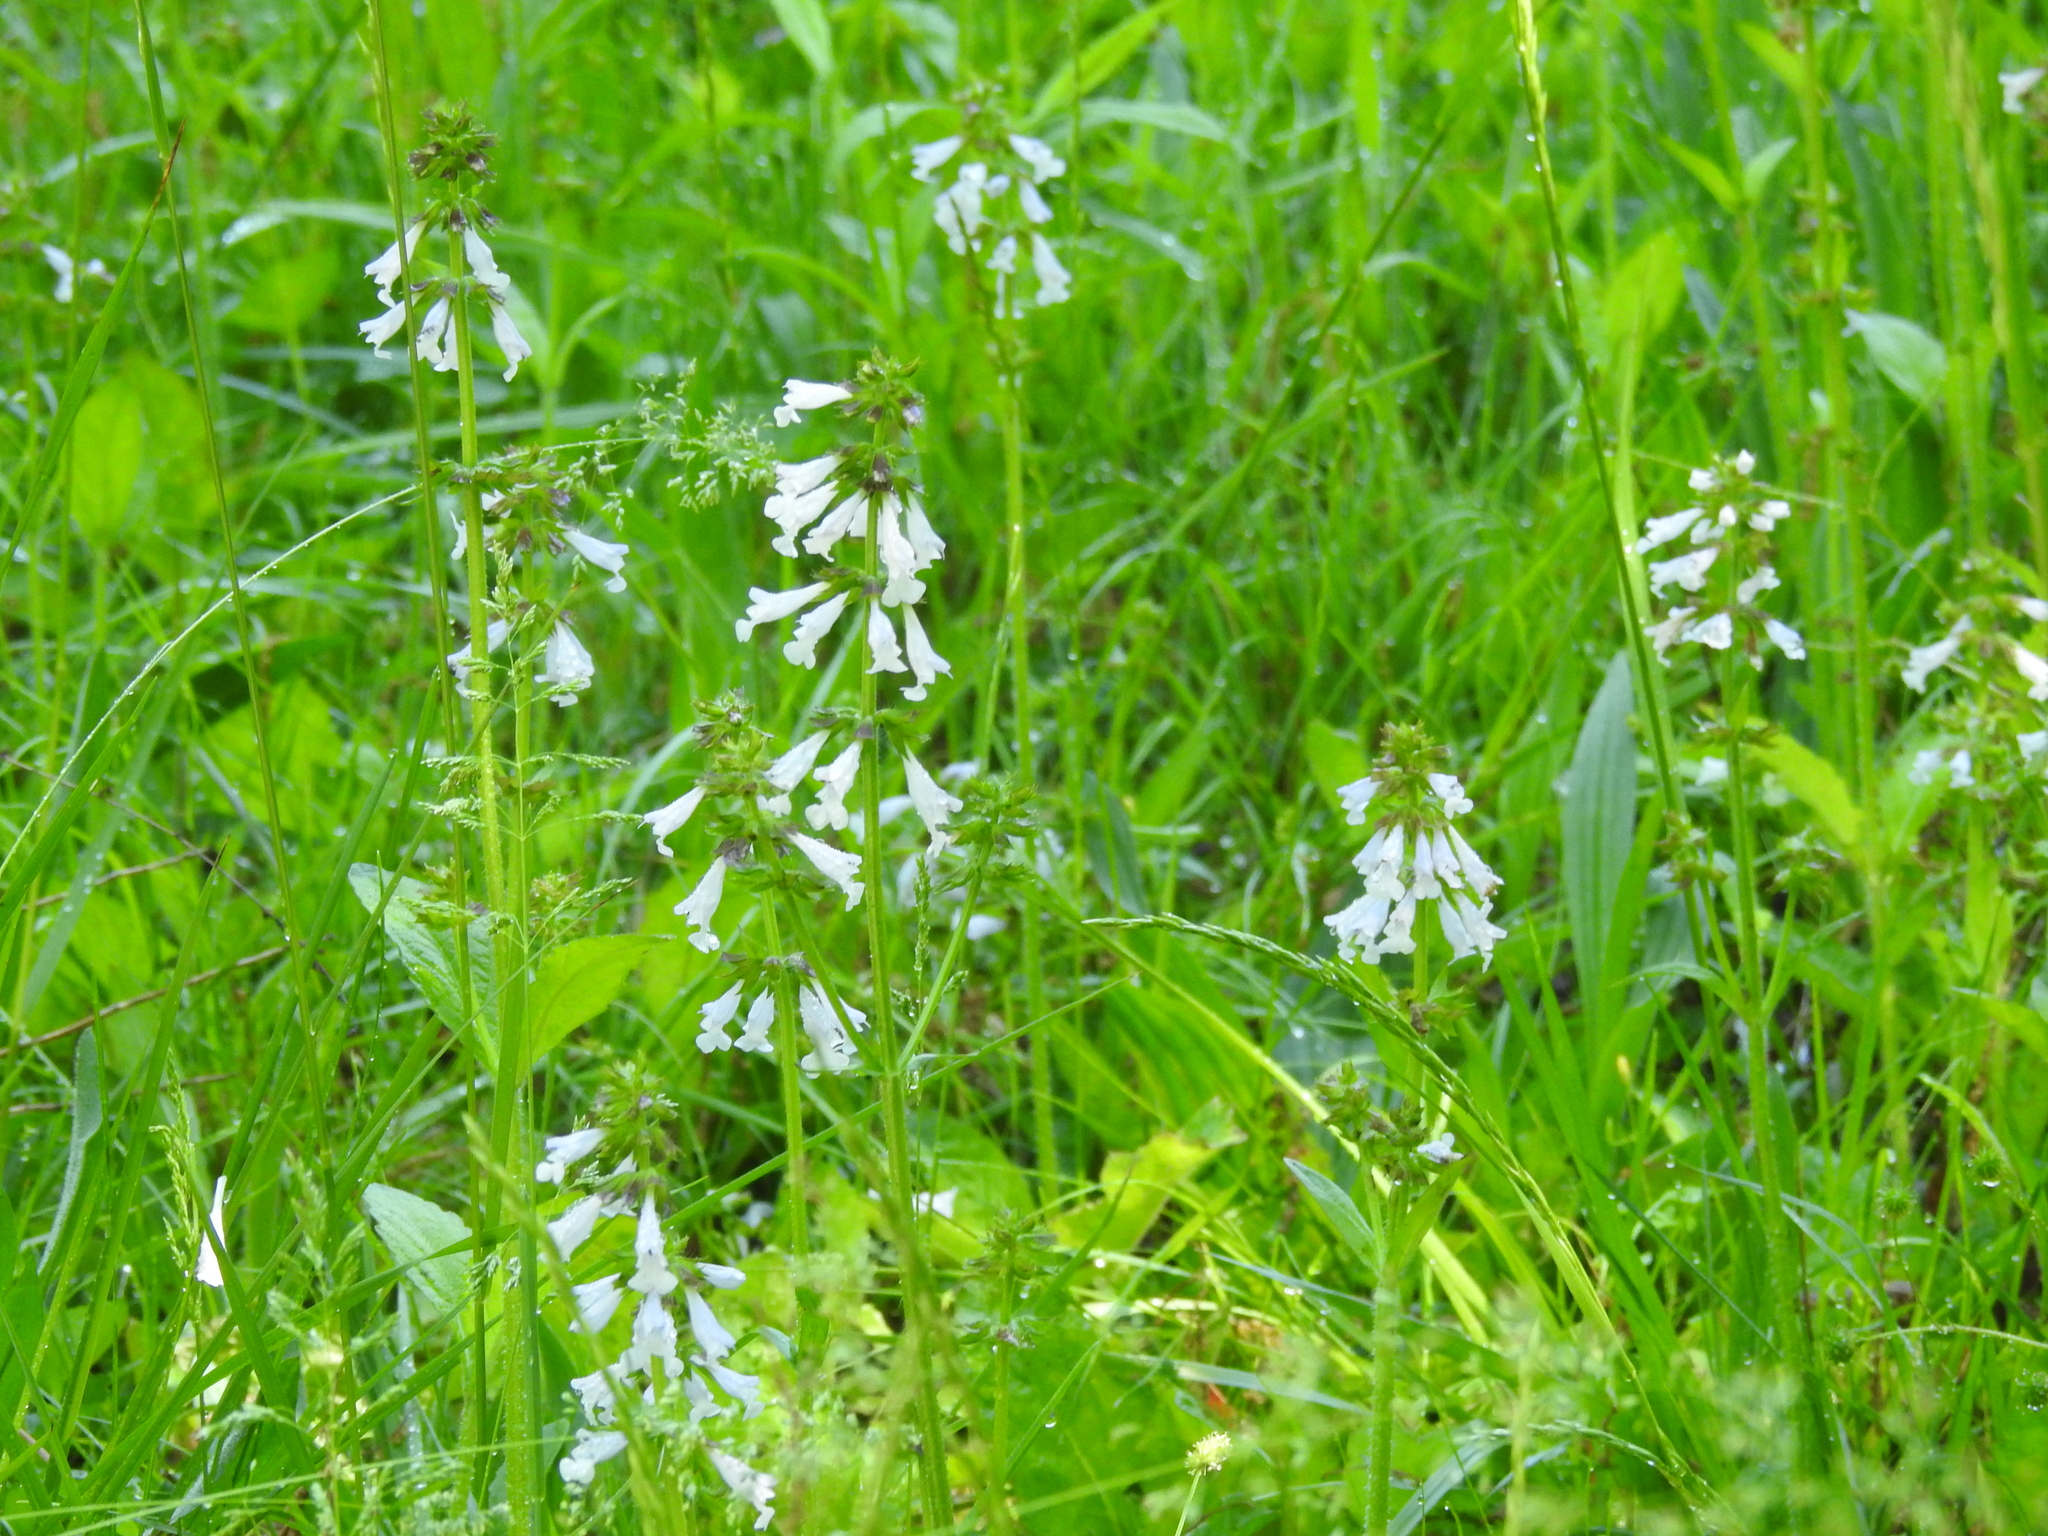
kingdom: Plantae
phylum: Tracheophyta
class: Magnoliopsida
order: Lamiales
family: Lamiaceae
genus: Salvia
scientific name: Salvia lyrata
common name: Cancerweed
